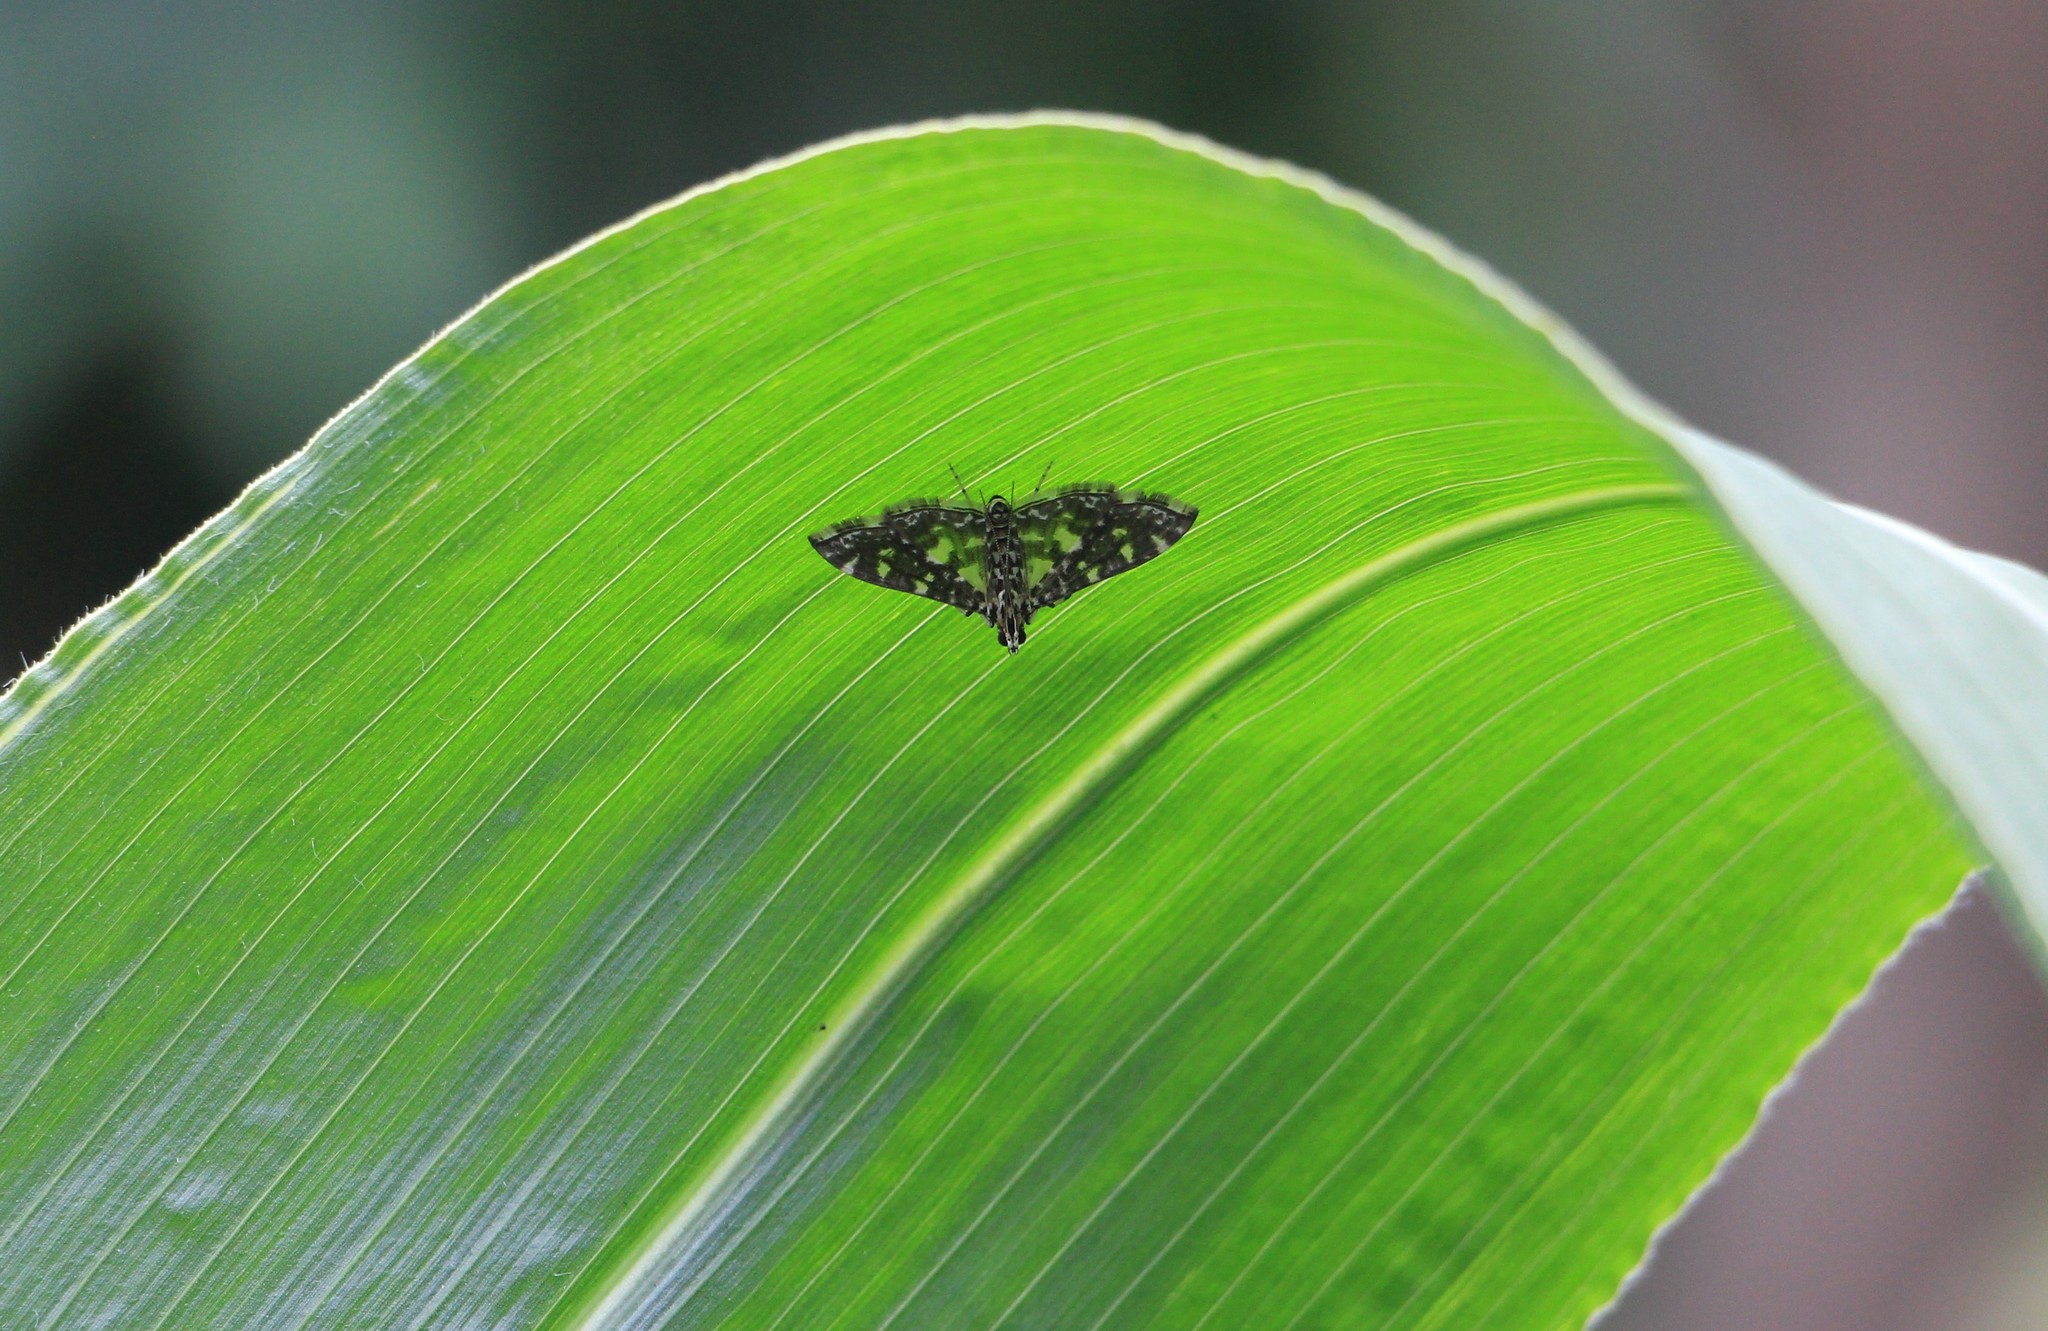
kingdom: Animalia
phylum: Arthropoda
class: Insecta
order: Lepidoptera
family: Crambidae
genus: Glyphodes
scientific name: Glyphodes onychinalis
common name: Swan plant moth
